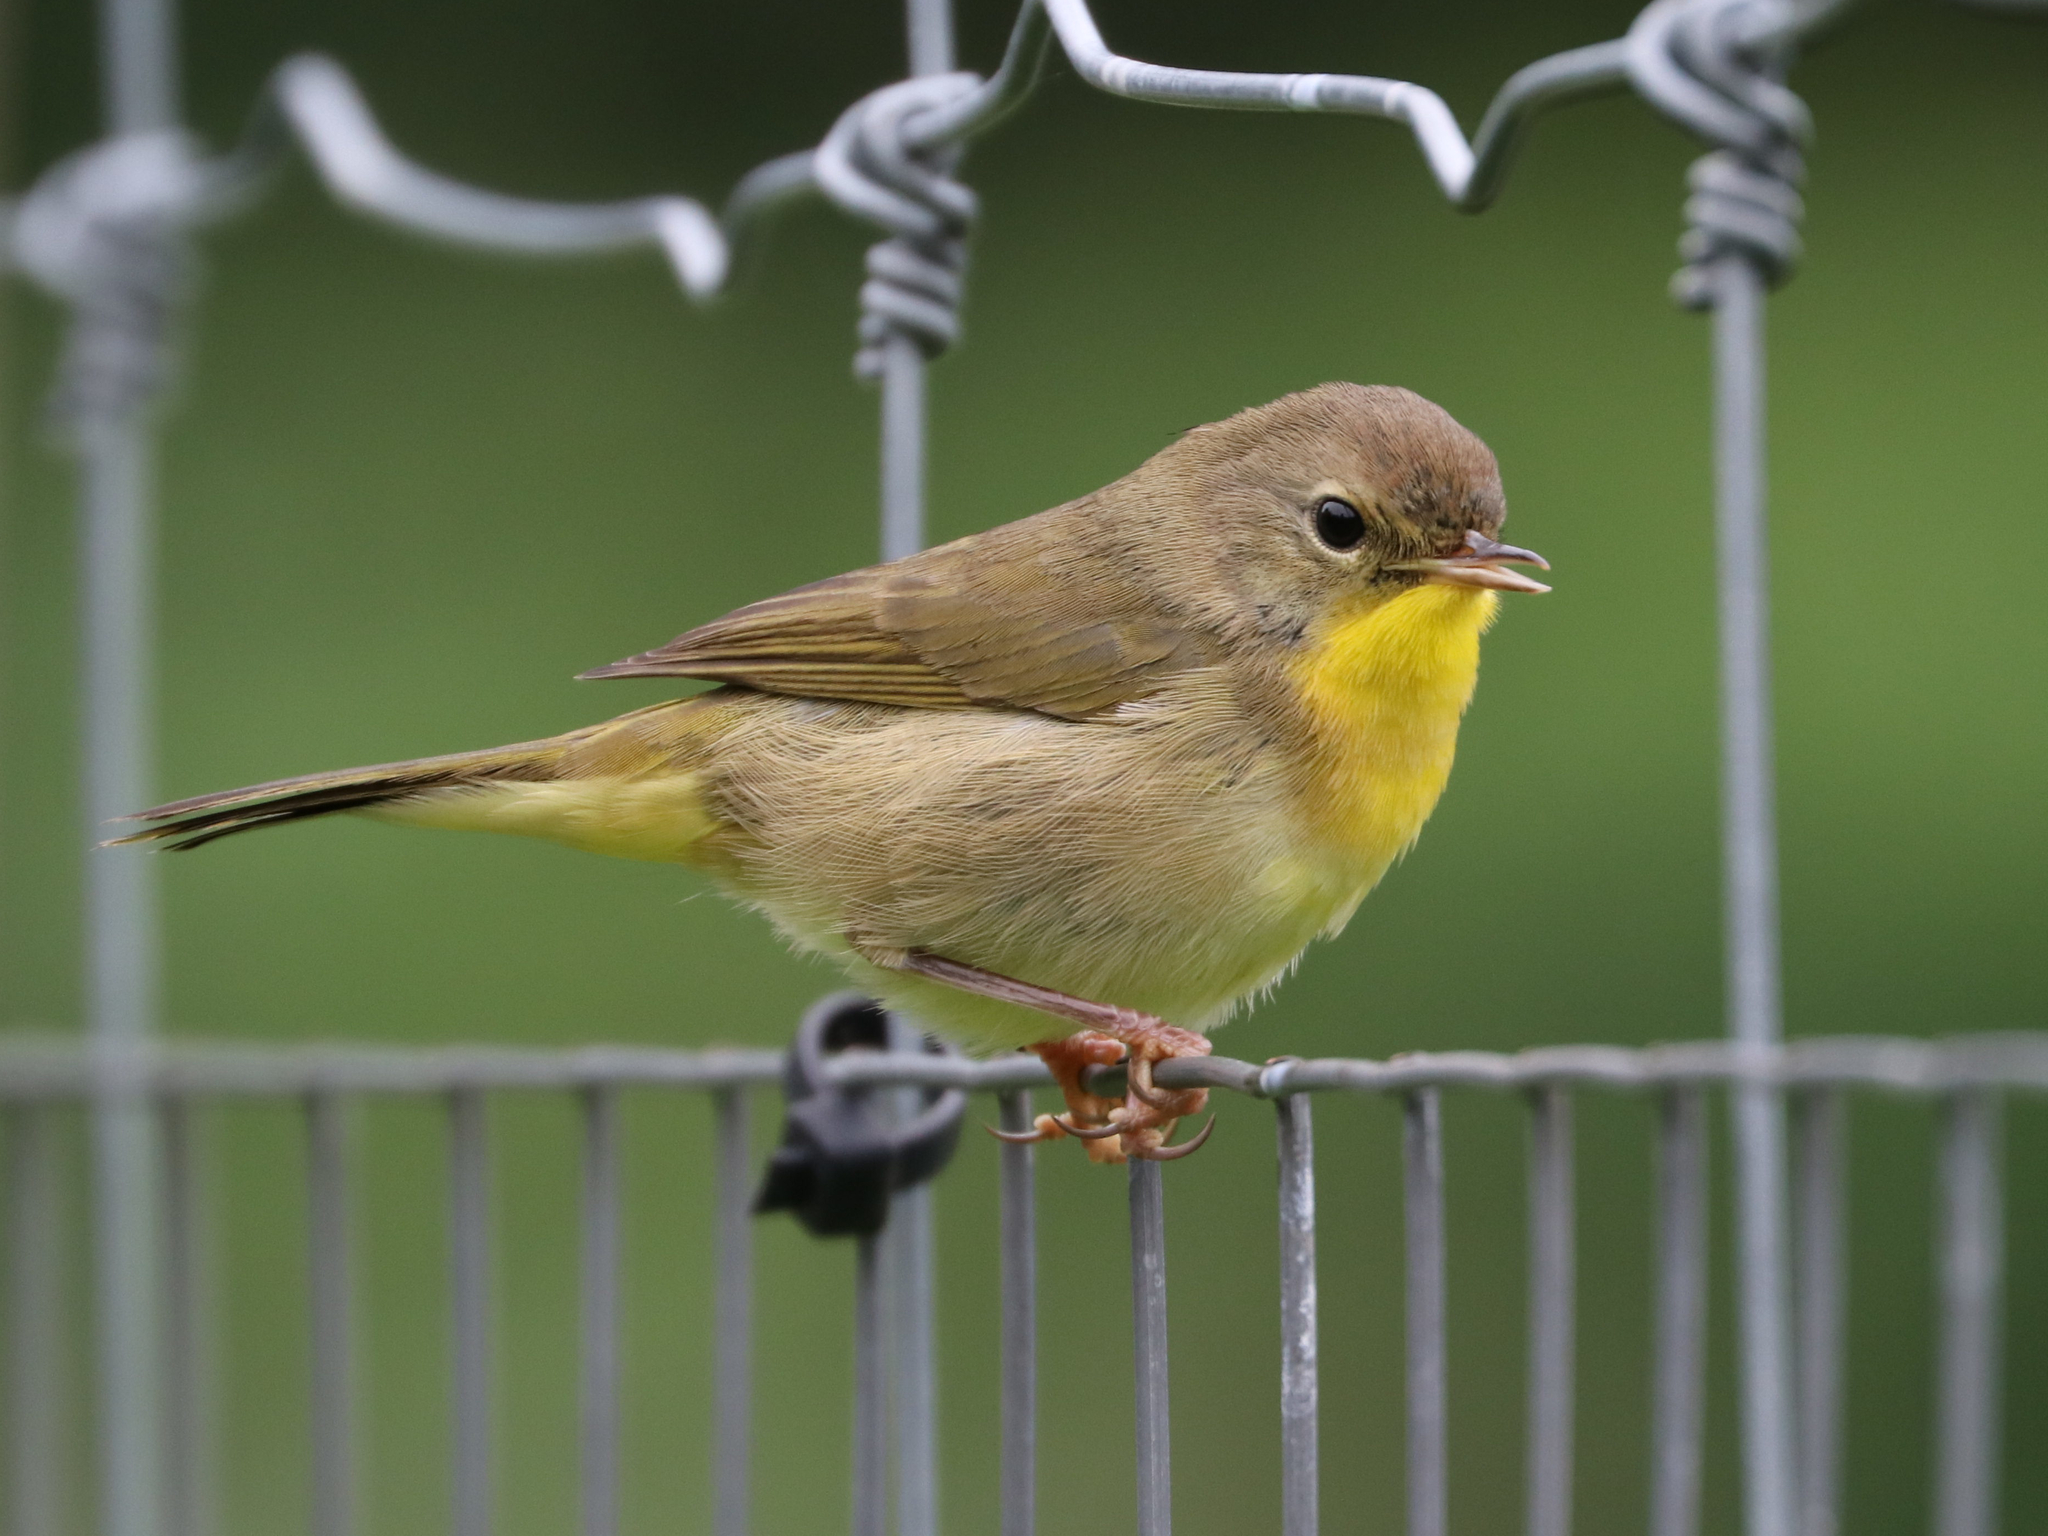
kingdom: Animalia
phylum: Chordata
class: Aves
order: Passeriformes
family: Parulidae
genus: Geothlypis
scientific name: Geothlypis trichas
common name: Common yellowthroat
